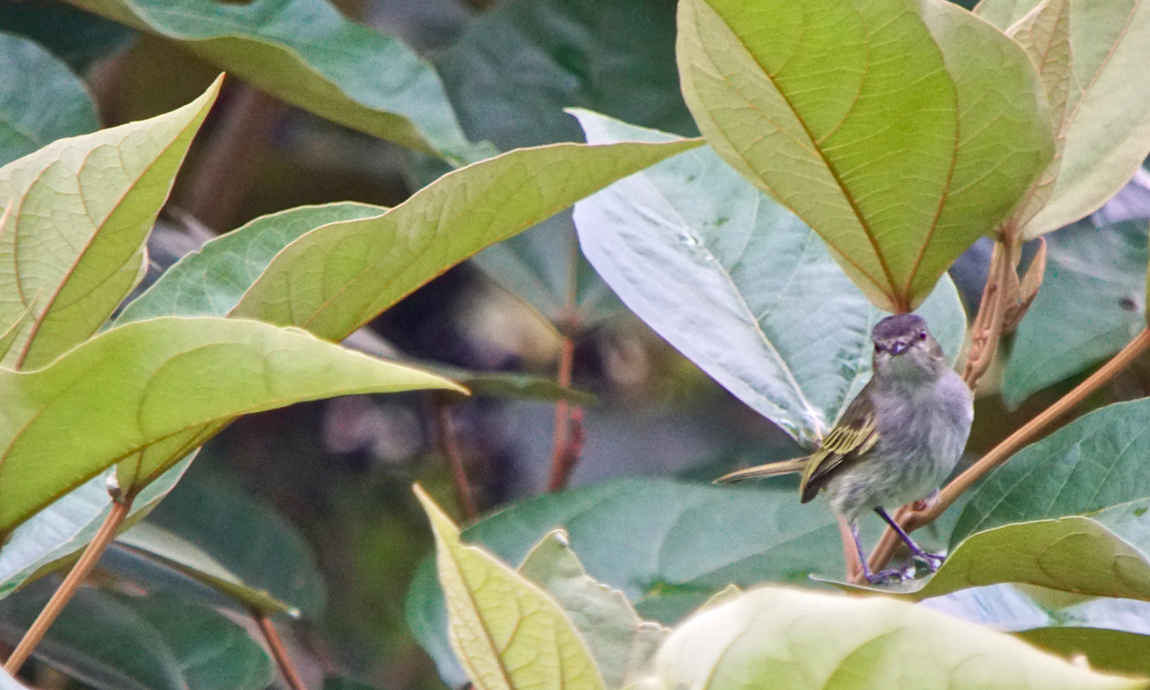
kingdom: Animalia
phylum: Chordata
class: Aves
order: Passeriformes
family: Tyrannidae
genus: Zimmerius
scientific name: Zimmerius vilissimus
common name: Paltry tyrannulet
